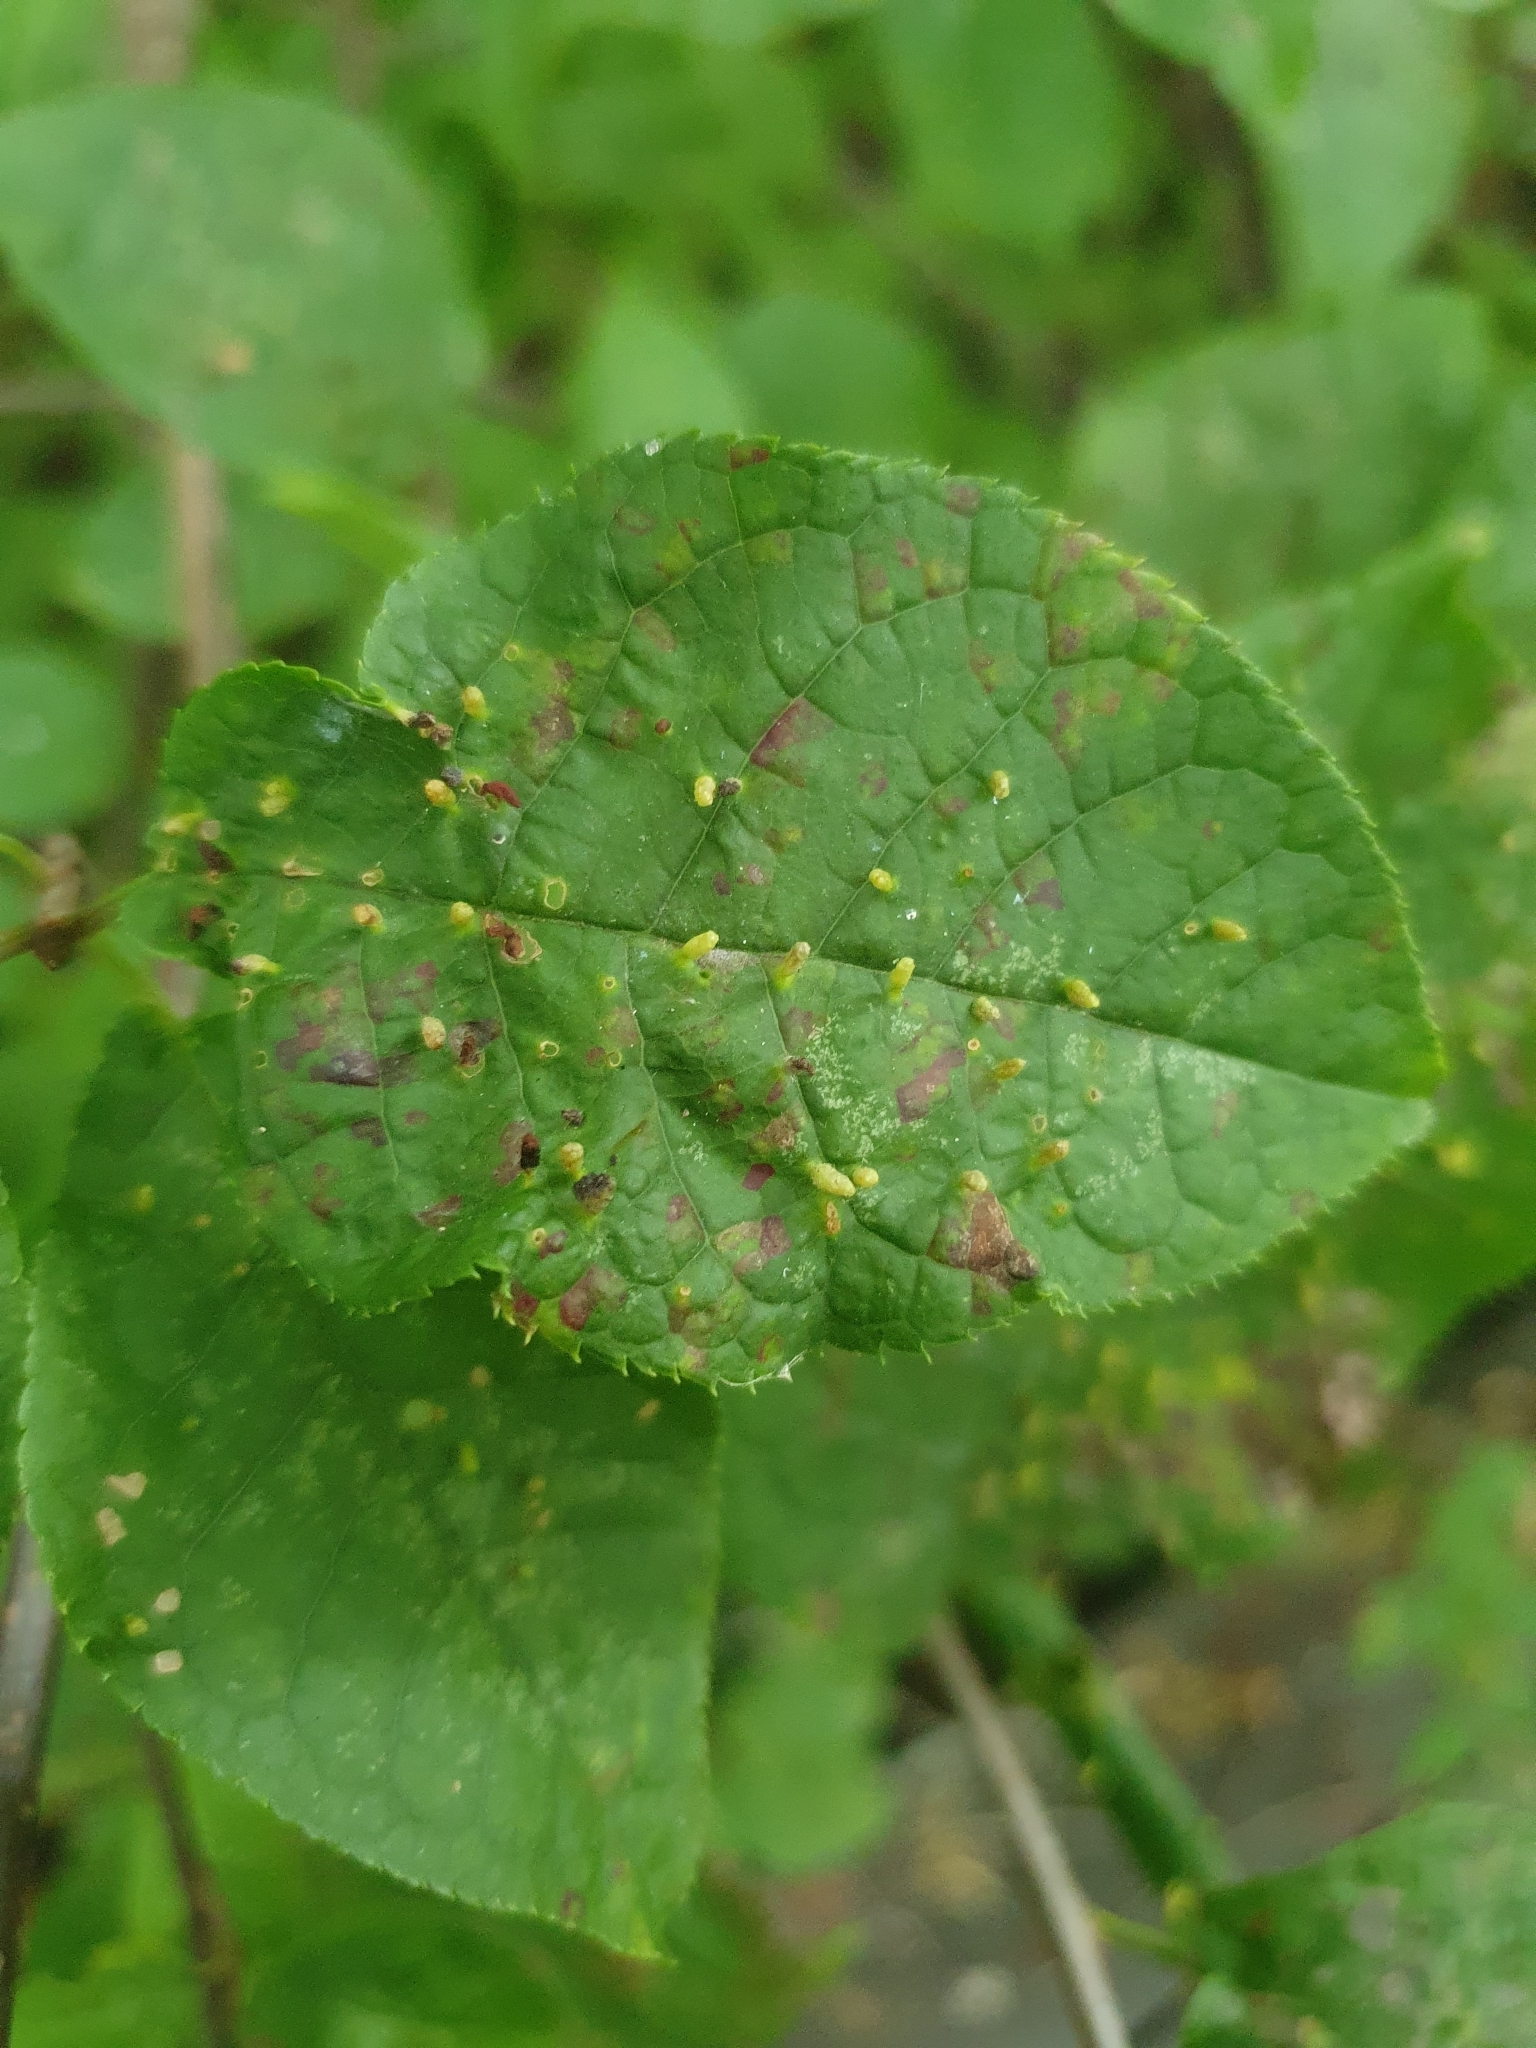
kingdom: Animalia
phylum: Arthropoda
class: Arachnida
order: Trombidiformes
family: Eriophyidae
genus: Phyllocoptes
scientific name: Phyllocoptes eupadi
